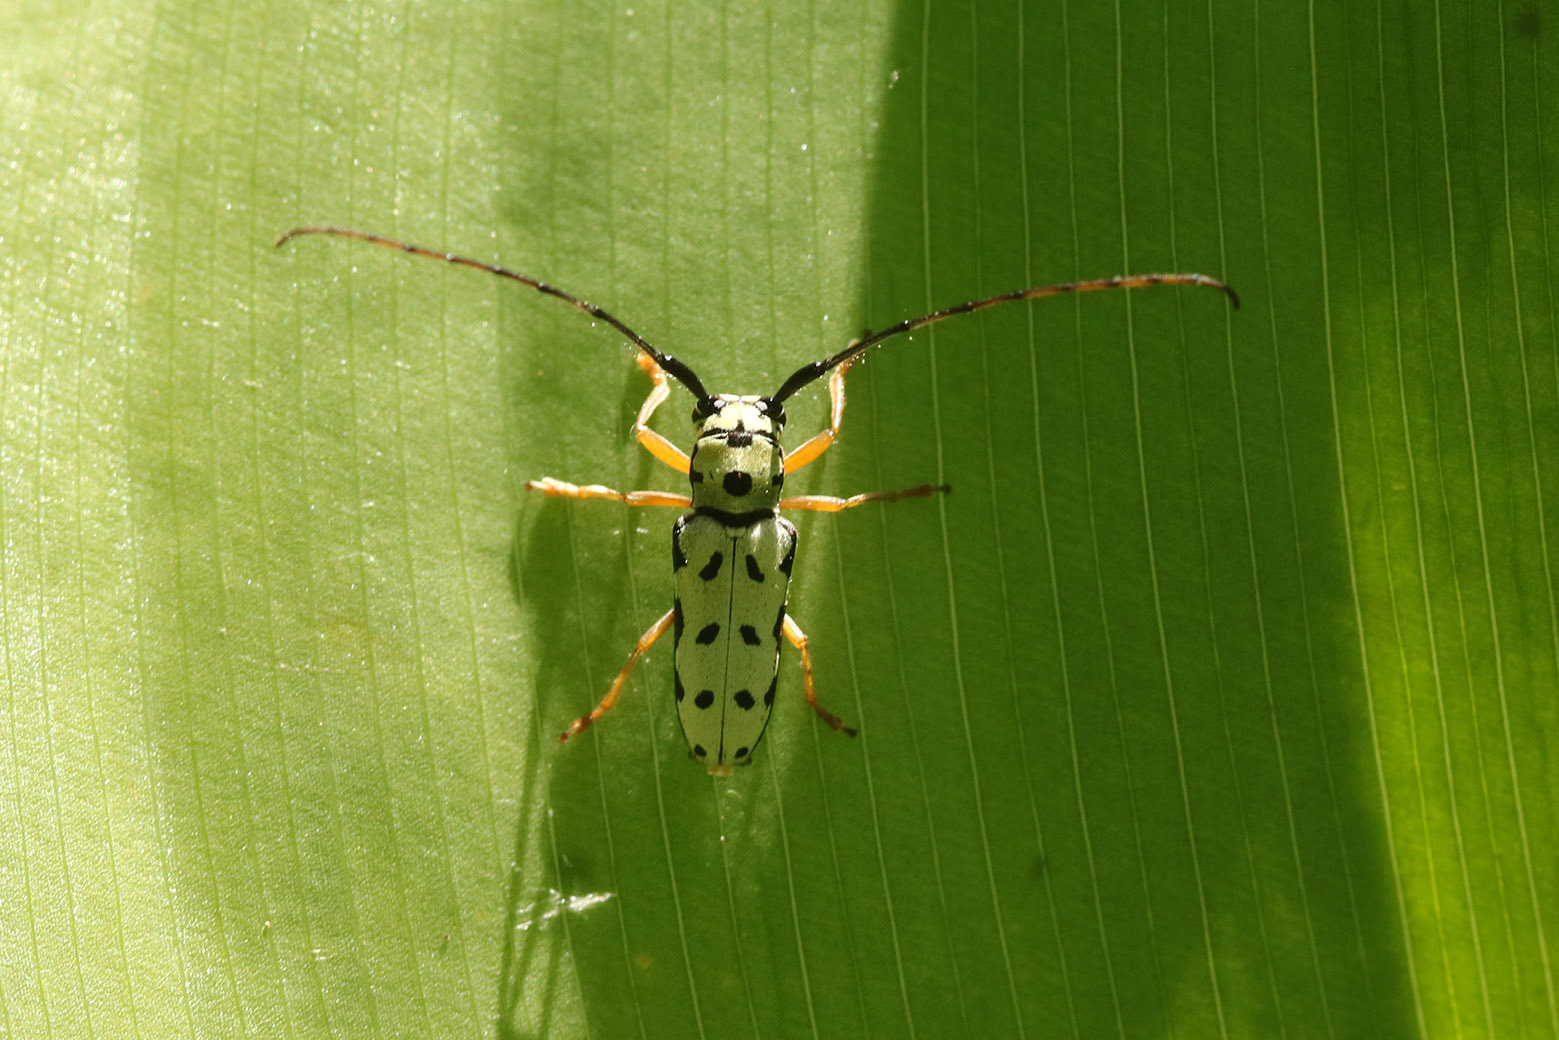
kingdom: Animalia
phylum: Arthropoda
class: Insecta
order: Coleoptera
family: Cerambycidae
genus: Zeale
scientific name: Zeale nigromaculata
